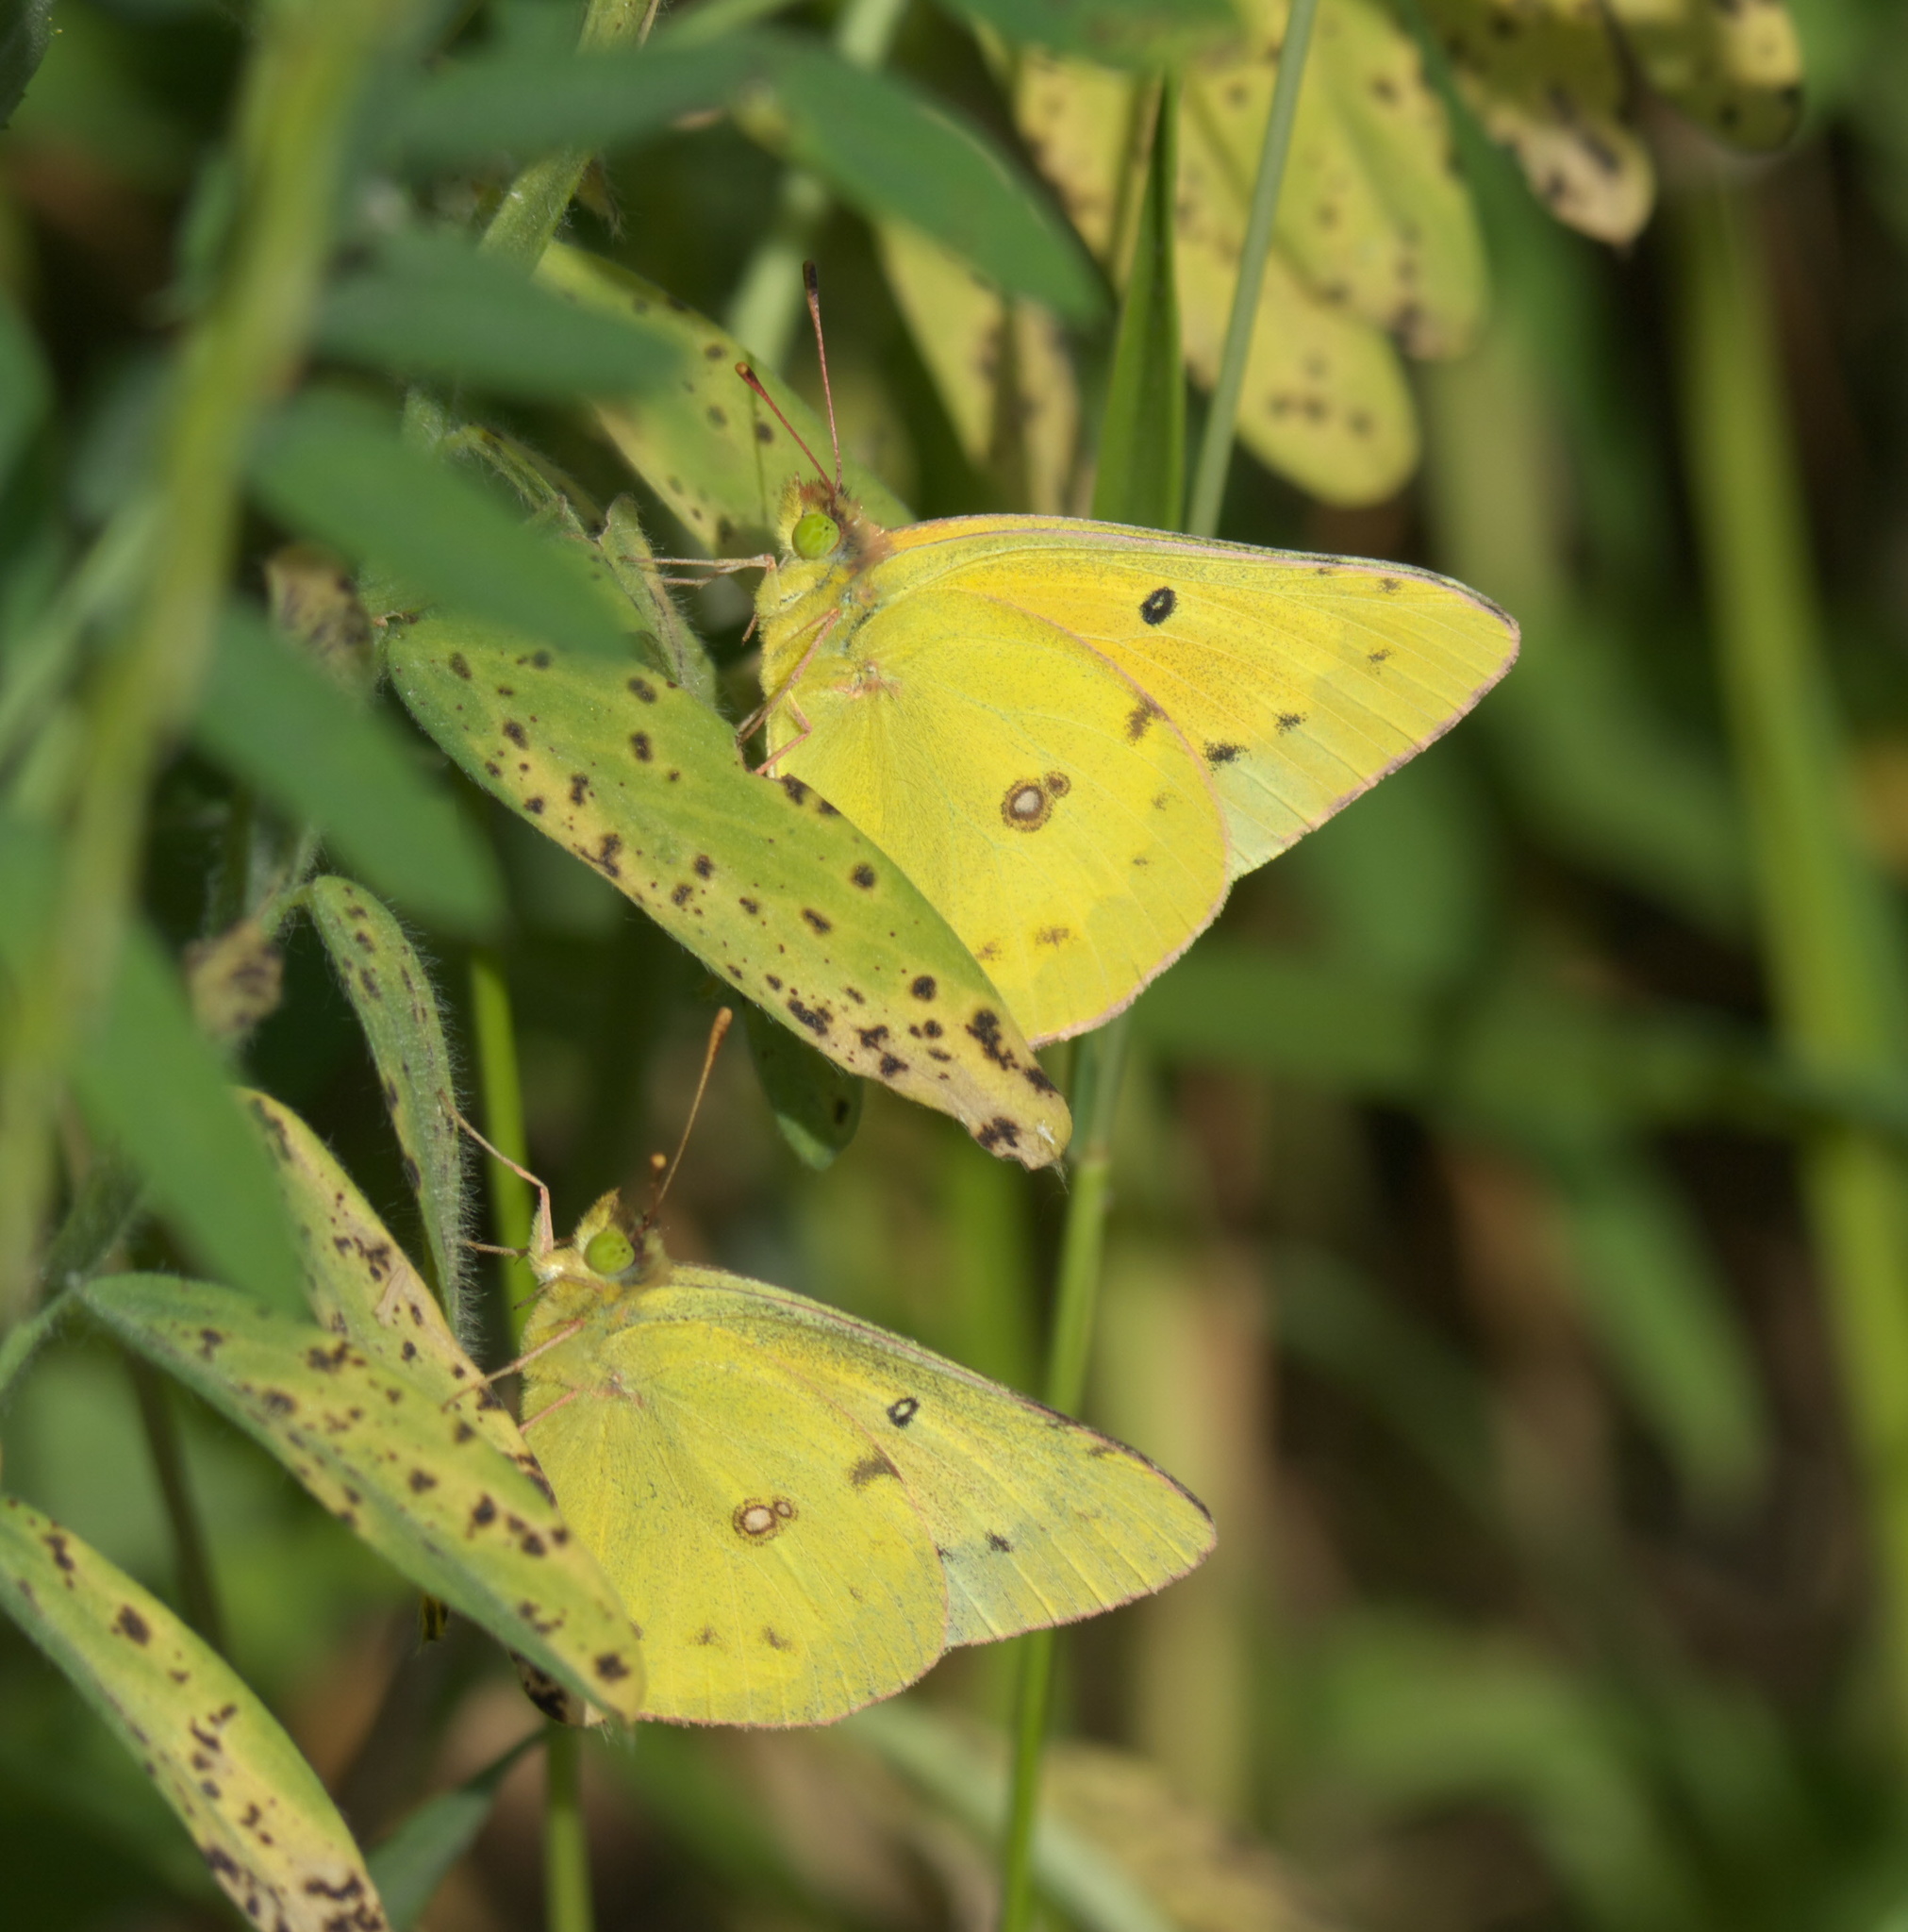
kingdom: Animalia
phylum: Arthropoda
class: Insecta
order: Lepidoptera
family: Pieridae
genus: Colias
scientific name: Colias eurytheme
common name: Alfalfa butterfly
